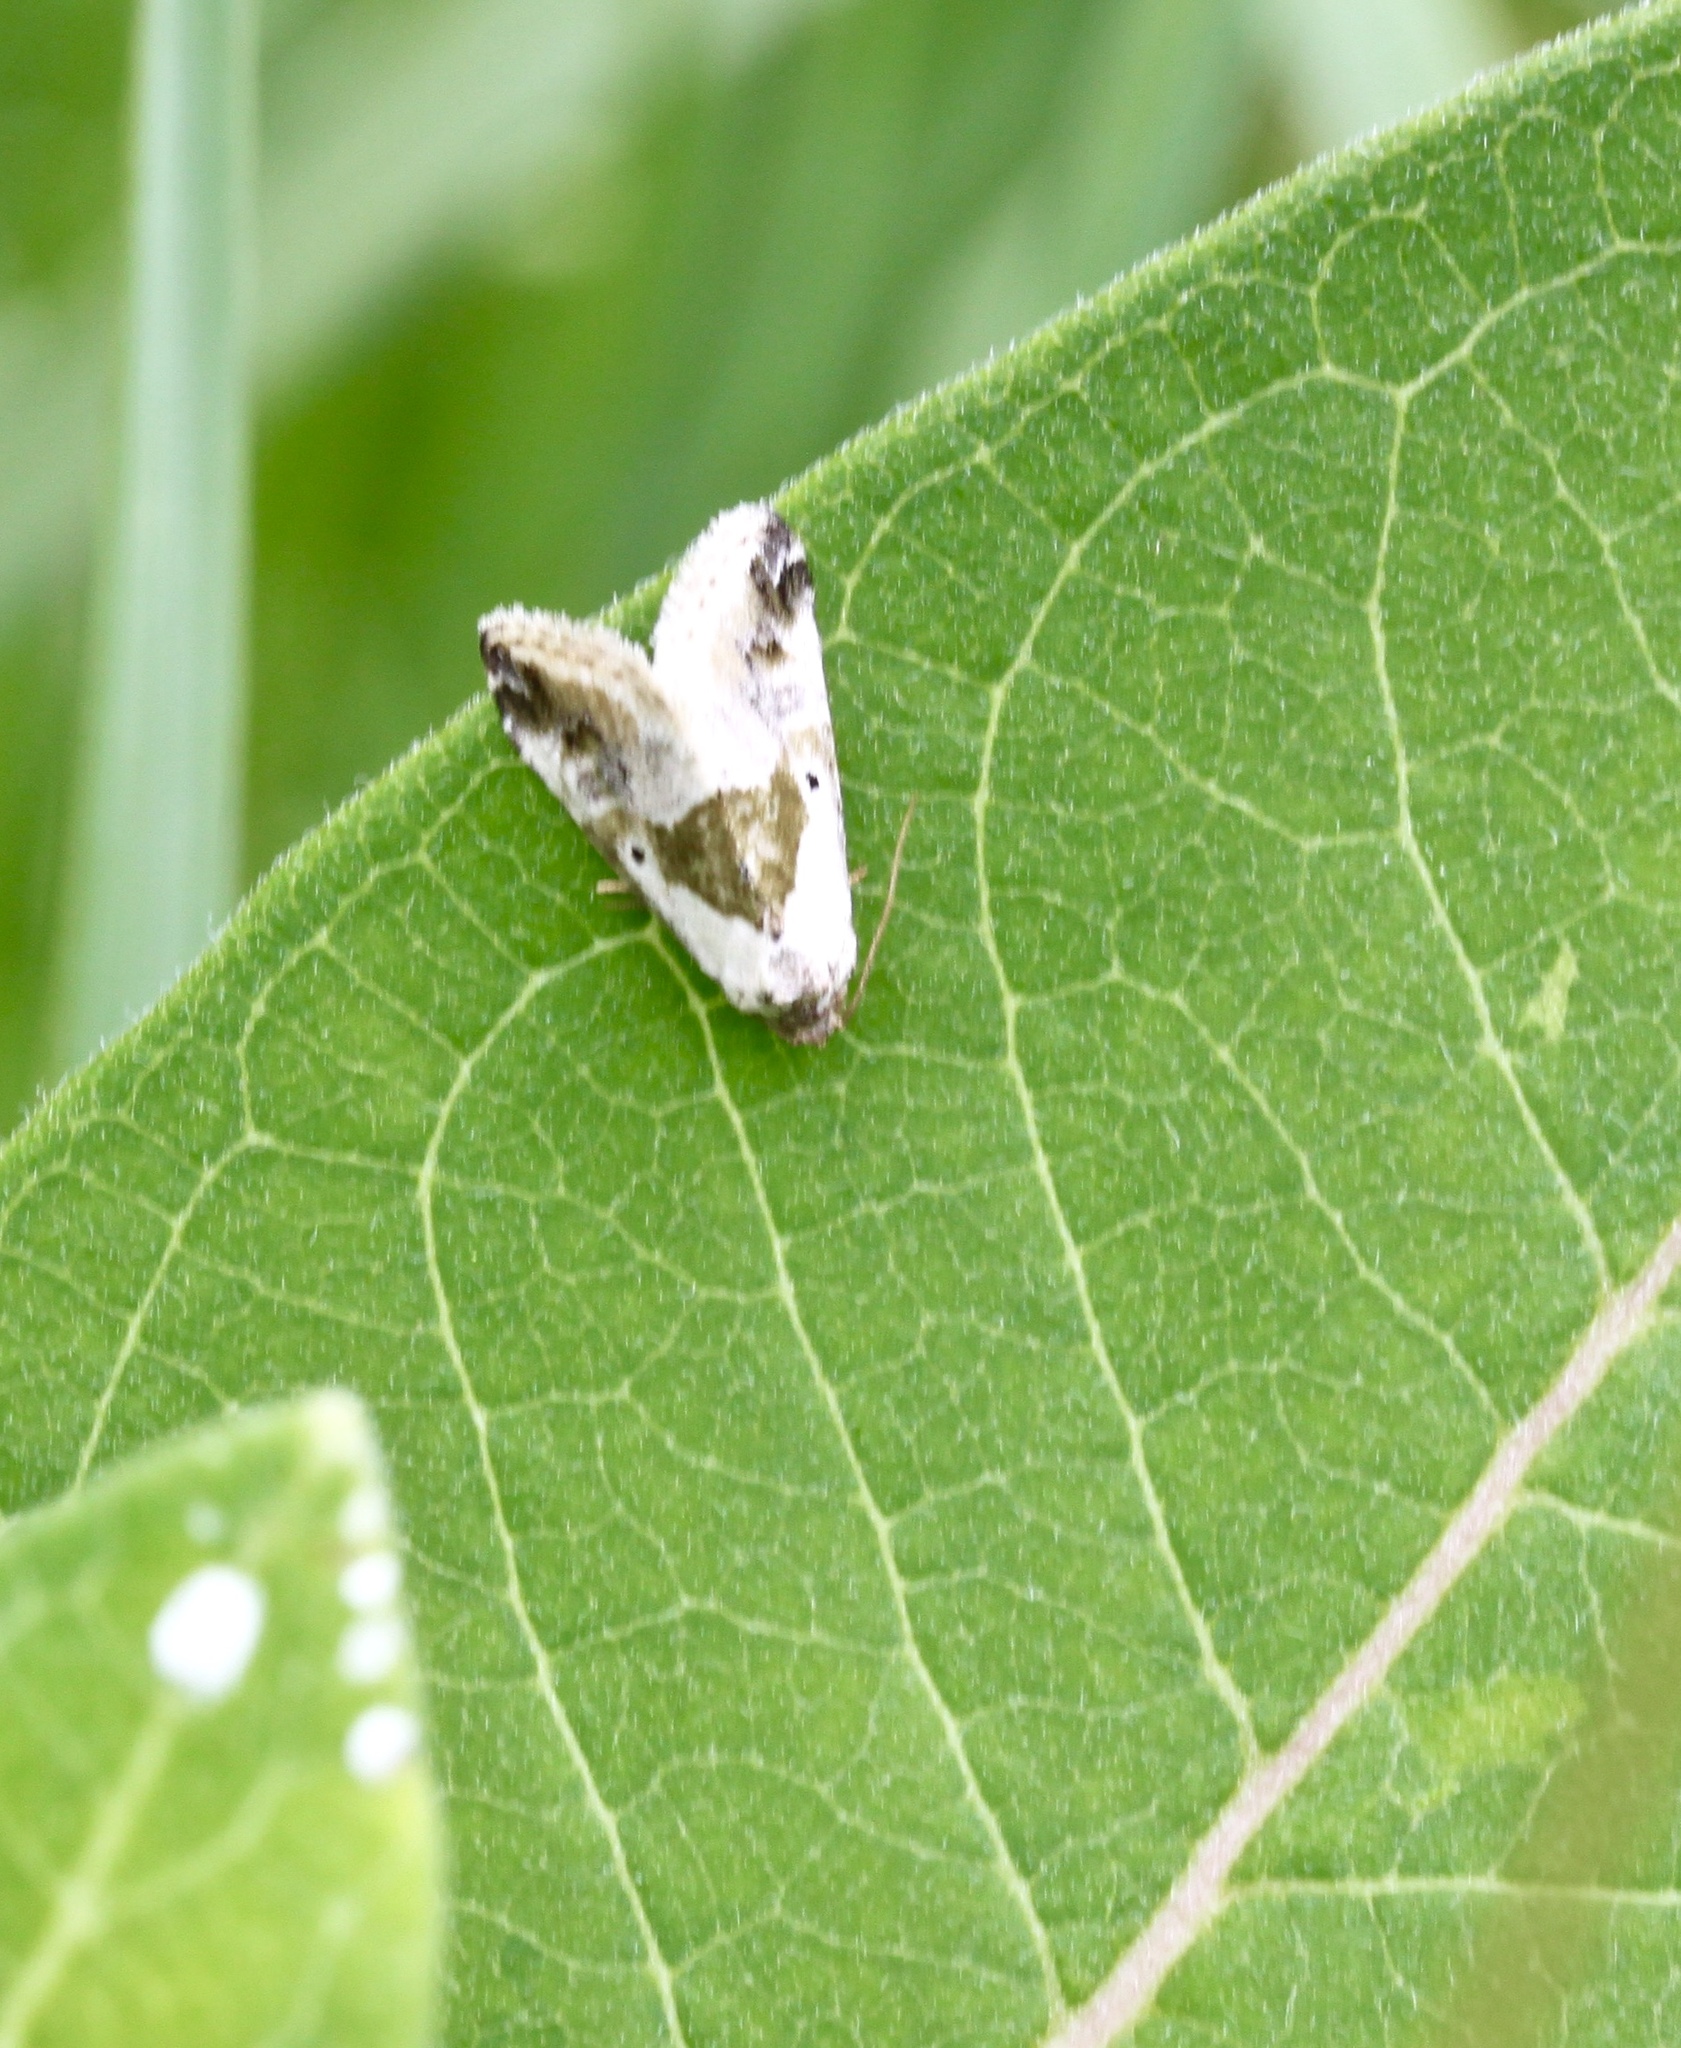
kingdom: Animalia
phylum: Arthropoda
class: Insecta
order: Lepidoptera
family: Noctuidae
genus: Maliattha
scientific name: Maliattha synochitis
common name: Black-dotted glyph
